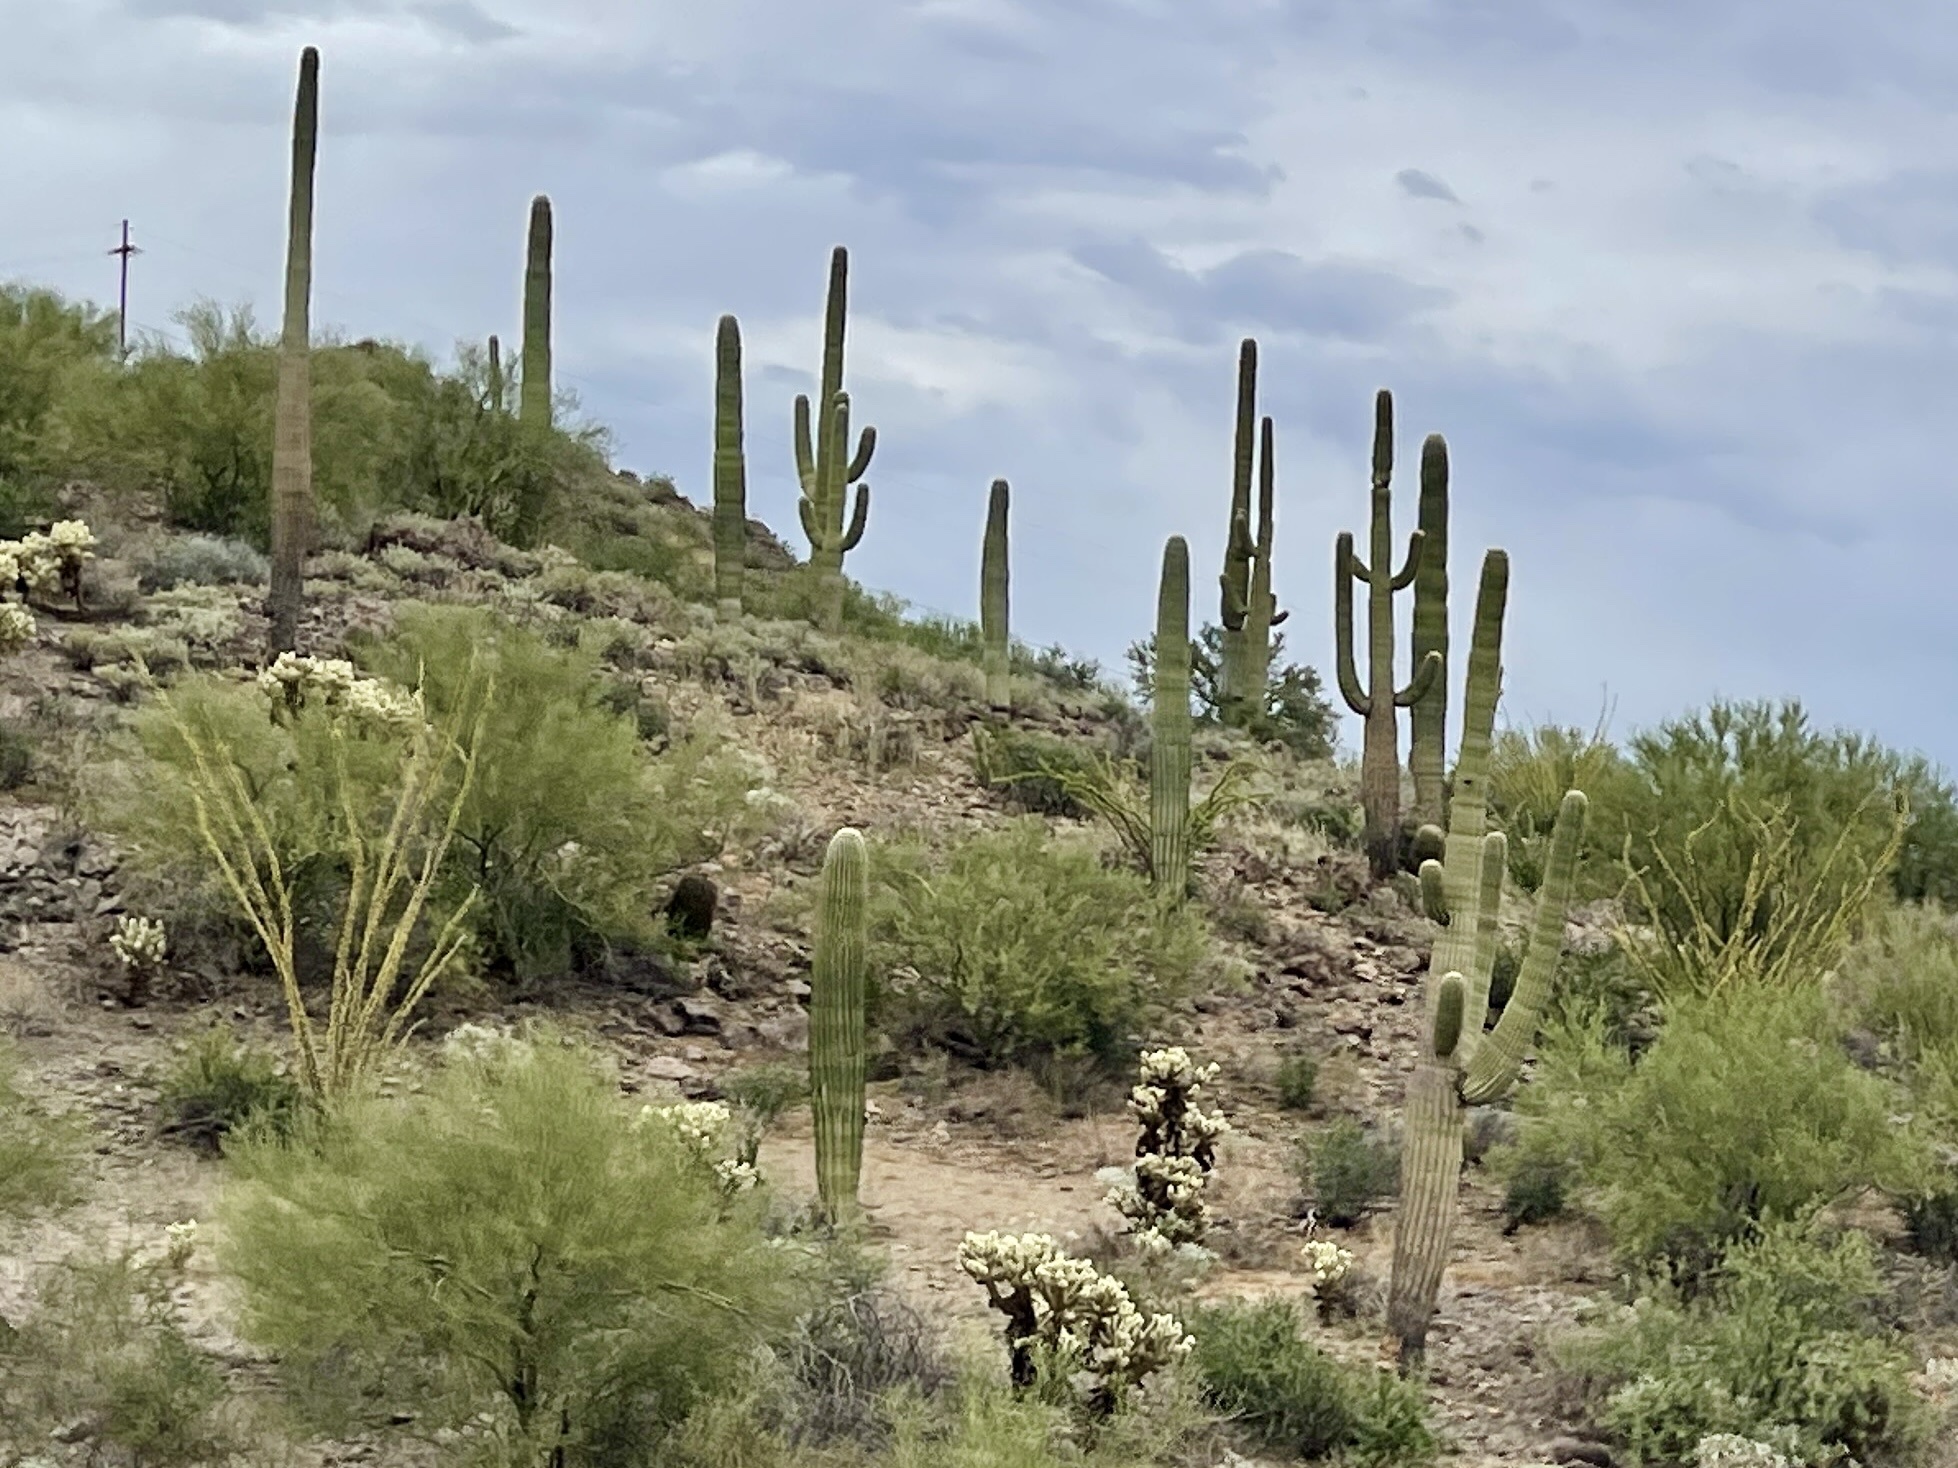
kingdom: Plantae
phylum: Tracheophyta
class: Magnoliopsida
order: Caryophyllales
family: Cactaceae
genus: Carnegiea
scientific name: Carnegiea gigantea
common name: Saguaro
